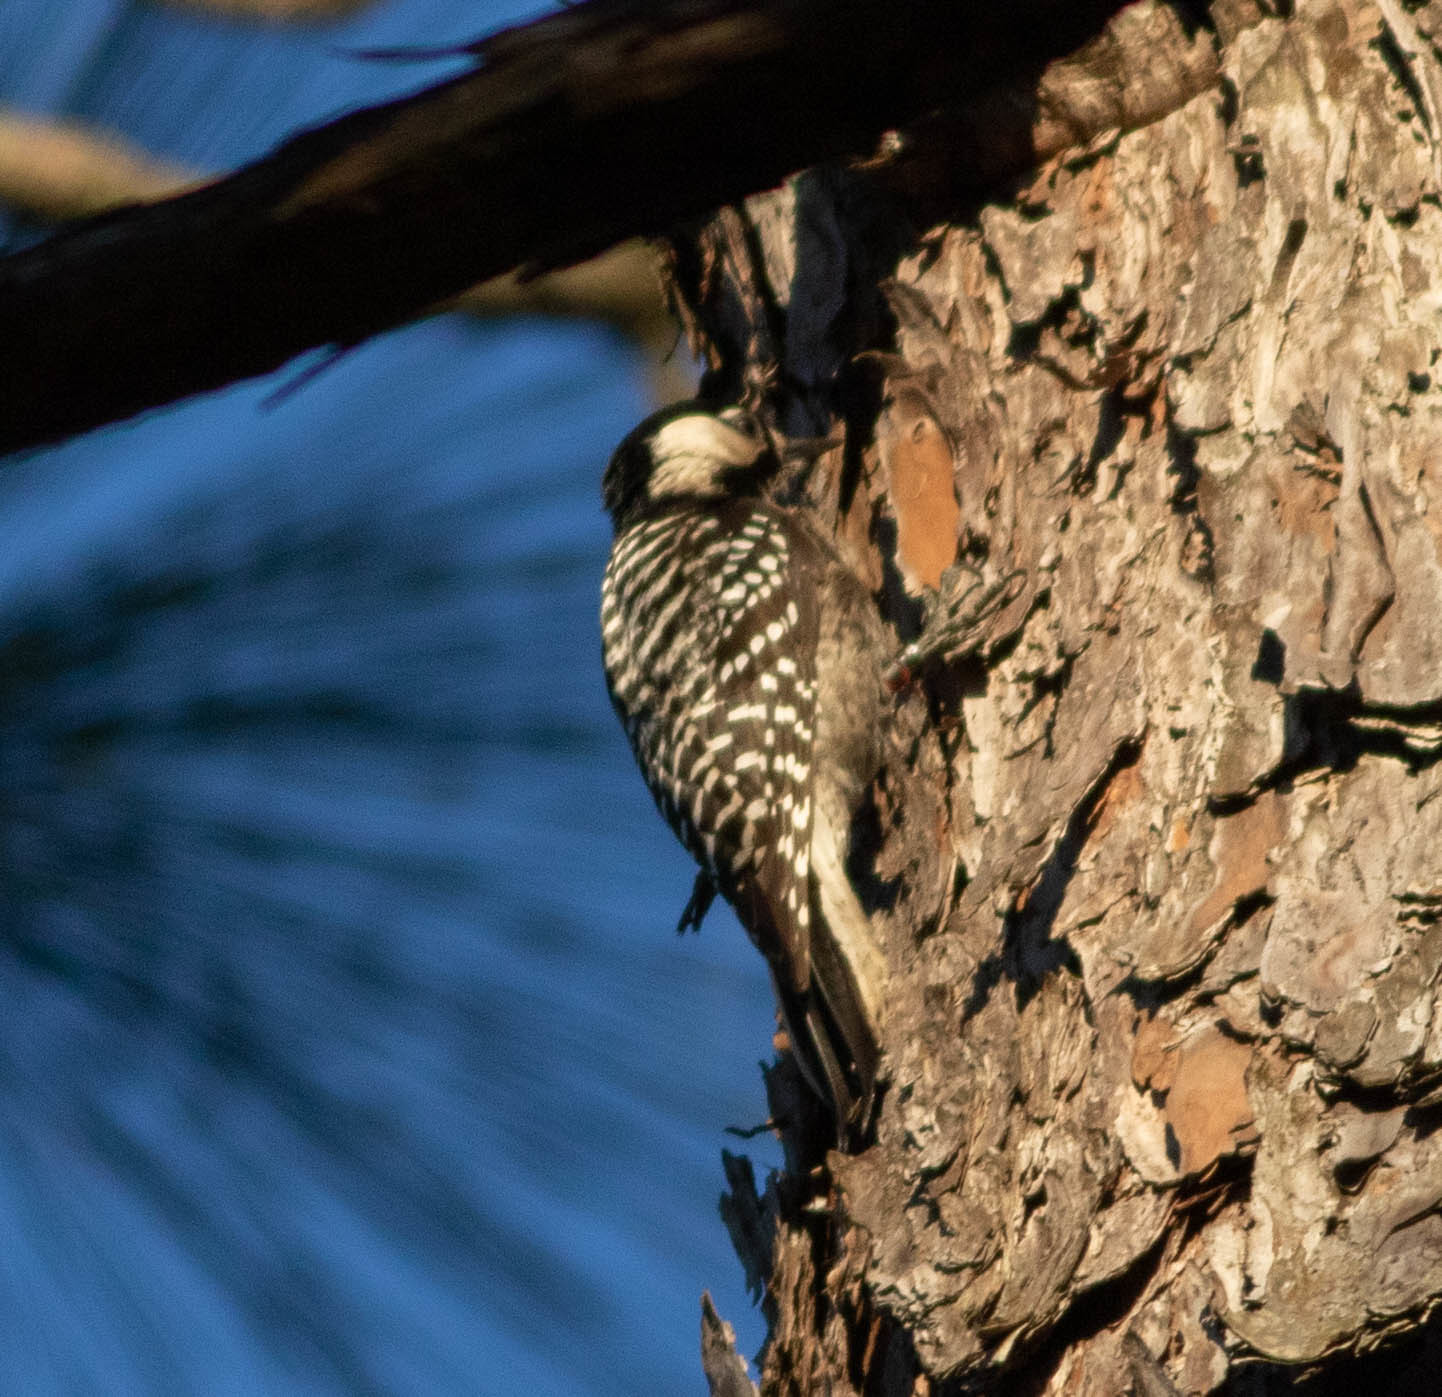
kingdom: Animalia
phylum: Chordata
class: Aves
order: Piciformes
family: Picidae
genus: Leuconotopicus
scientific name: Leuconotopicus borealis
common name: Red-cockaded woodpecker
